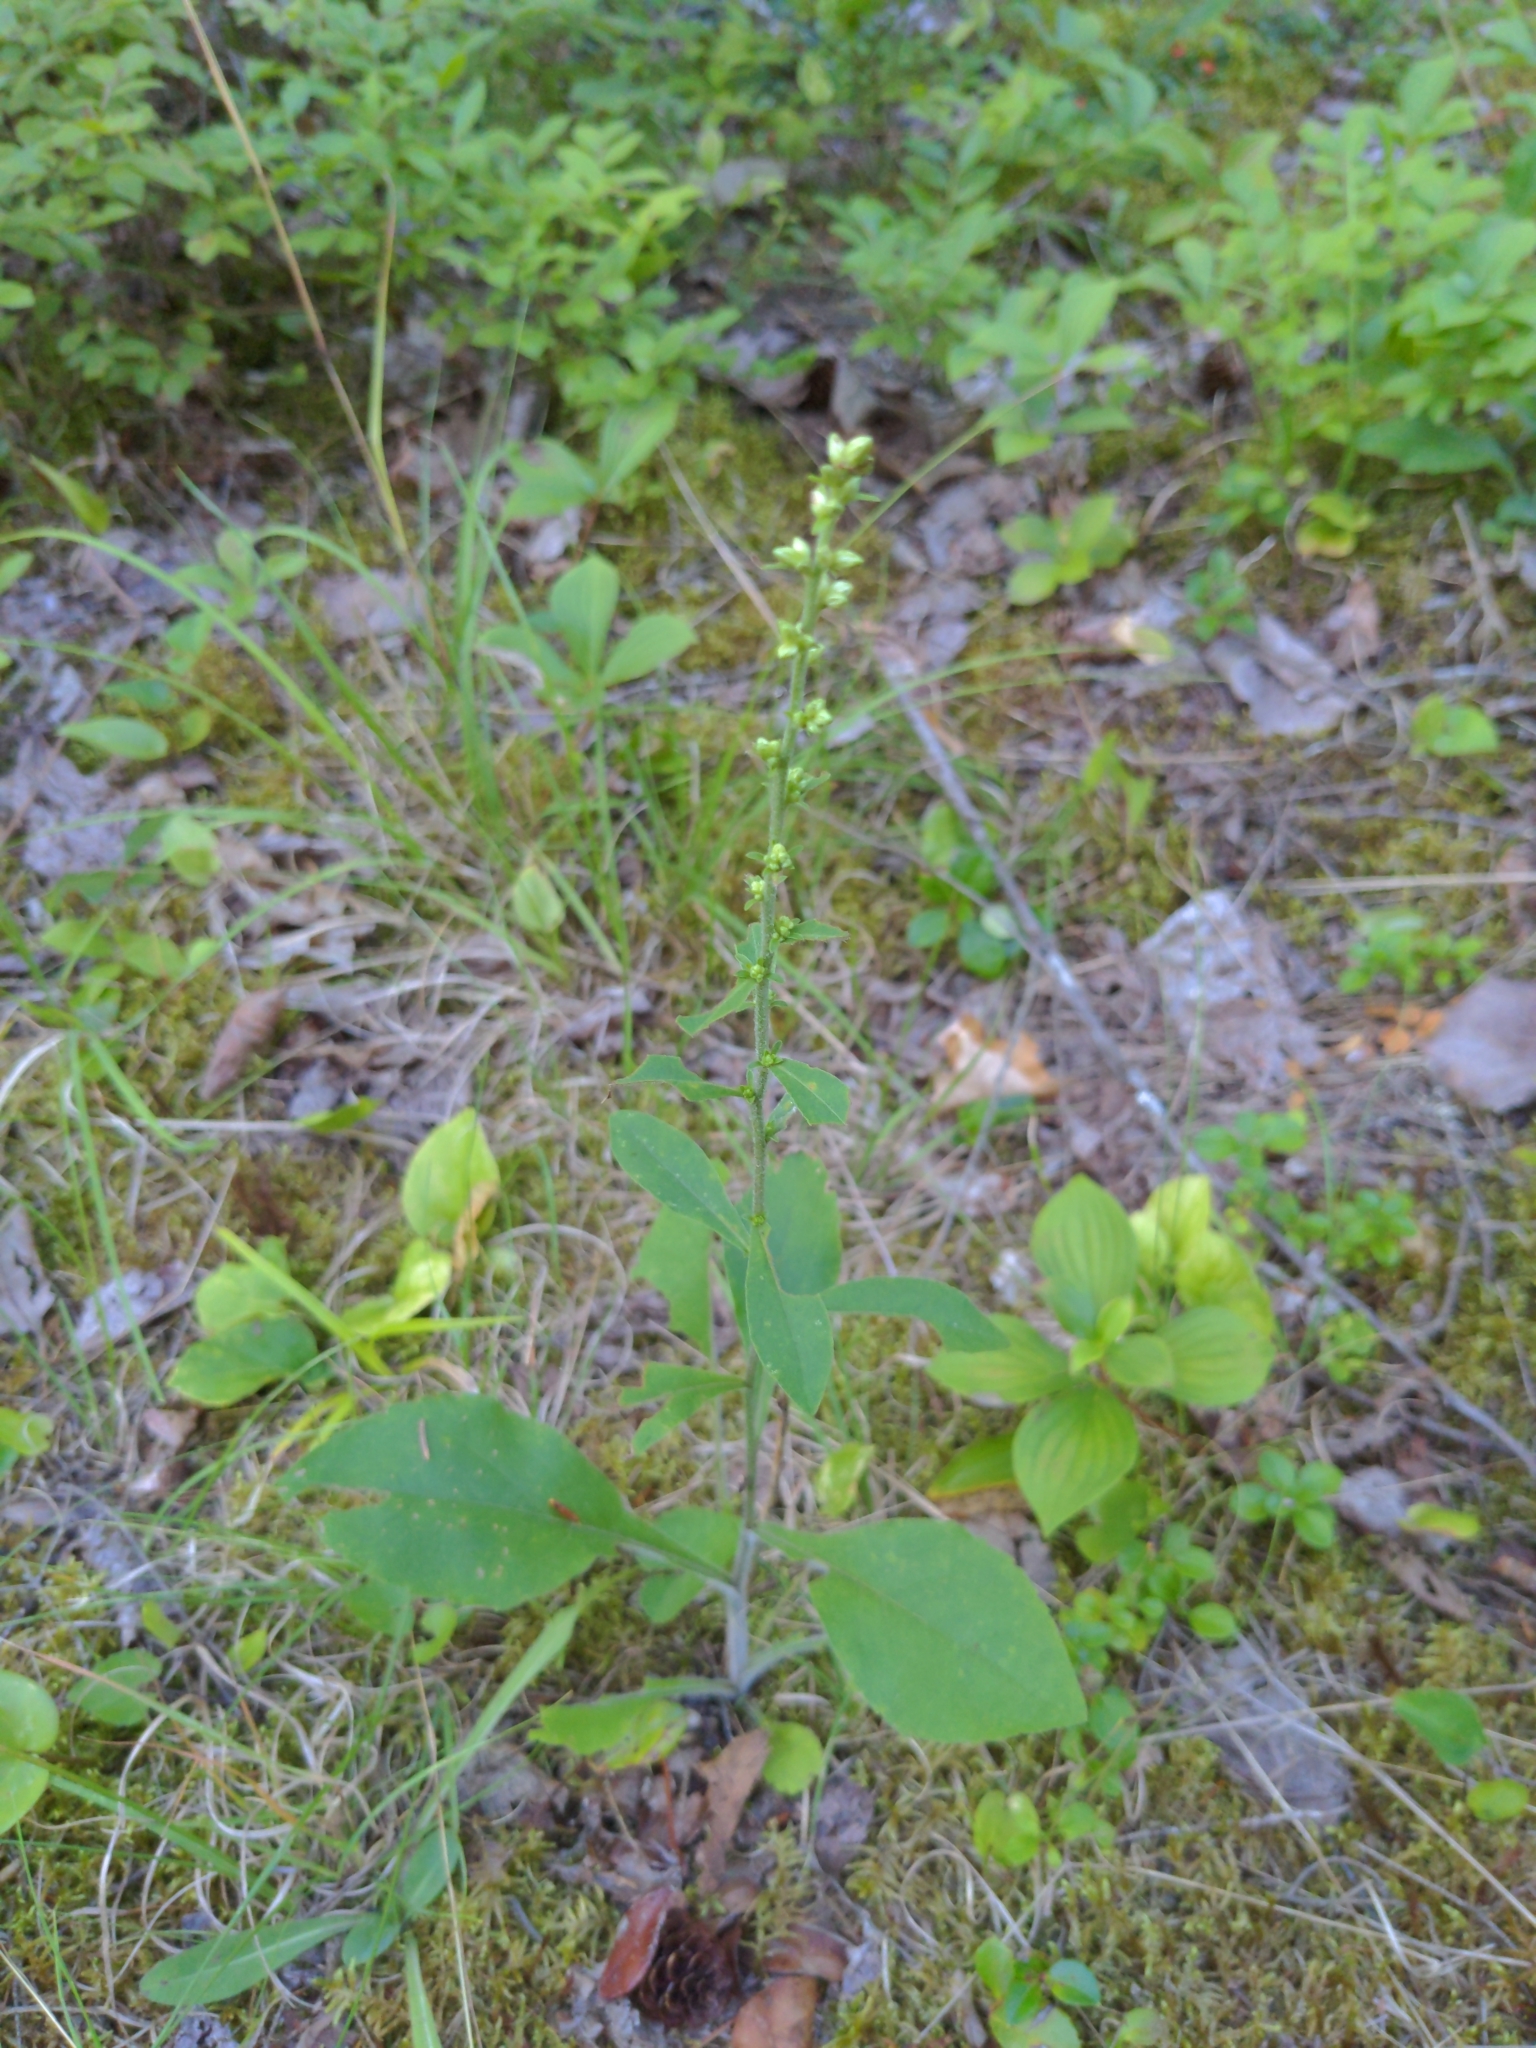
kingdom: Plantae
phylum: Tracheophyta
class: Magnoliopsida
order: Asterales
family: Asteraceae
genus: Solidago
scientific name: Solidago bicolor
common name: Silverrod
